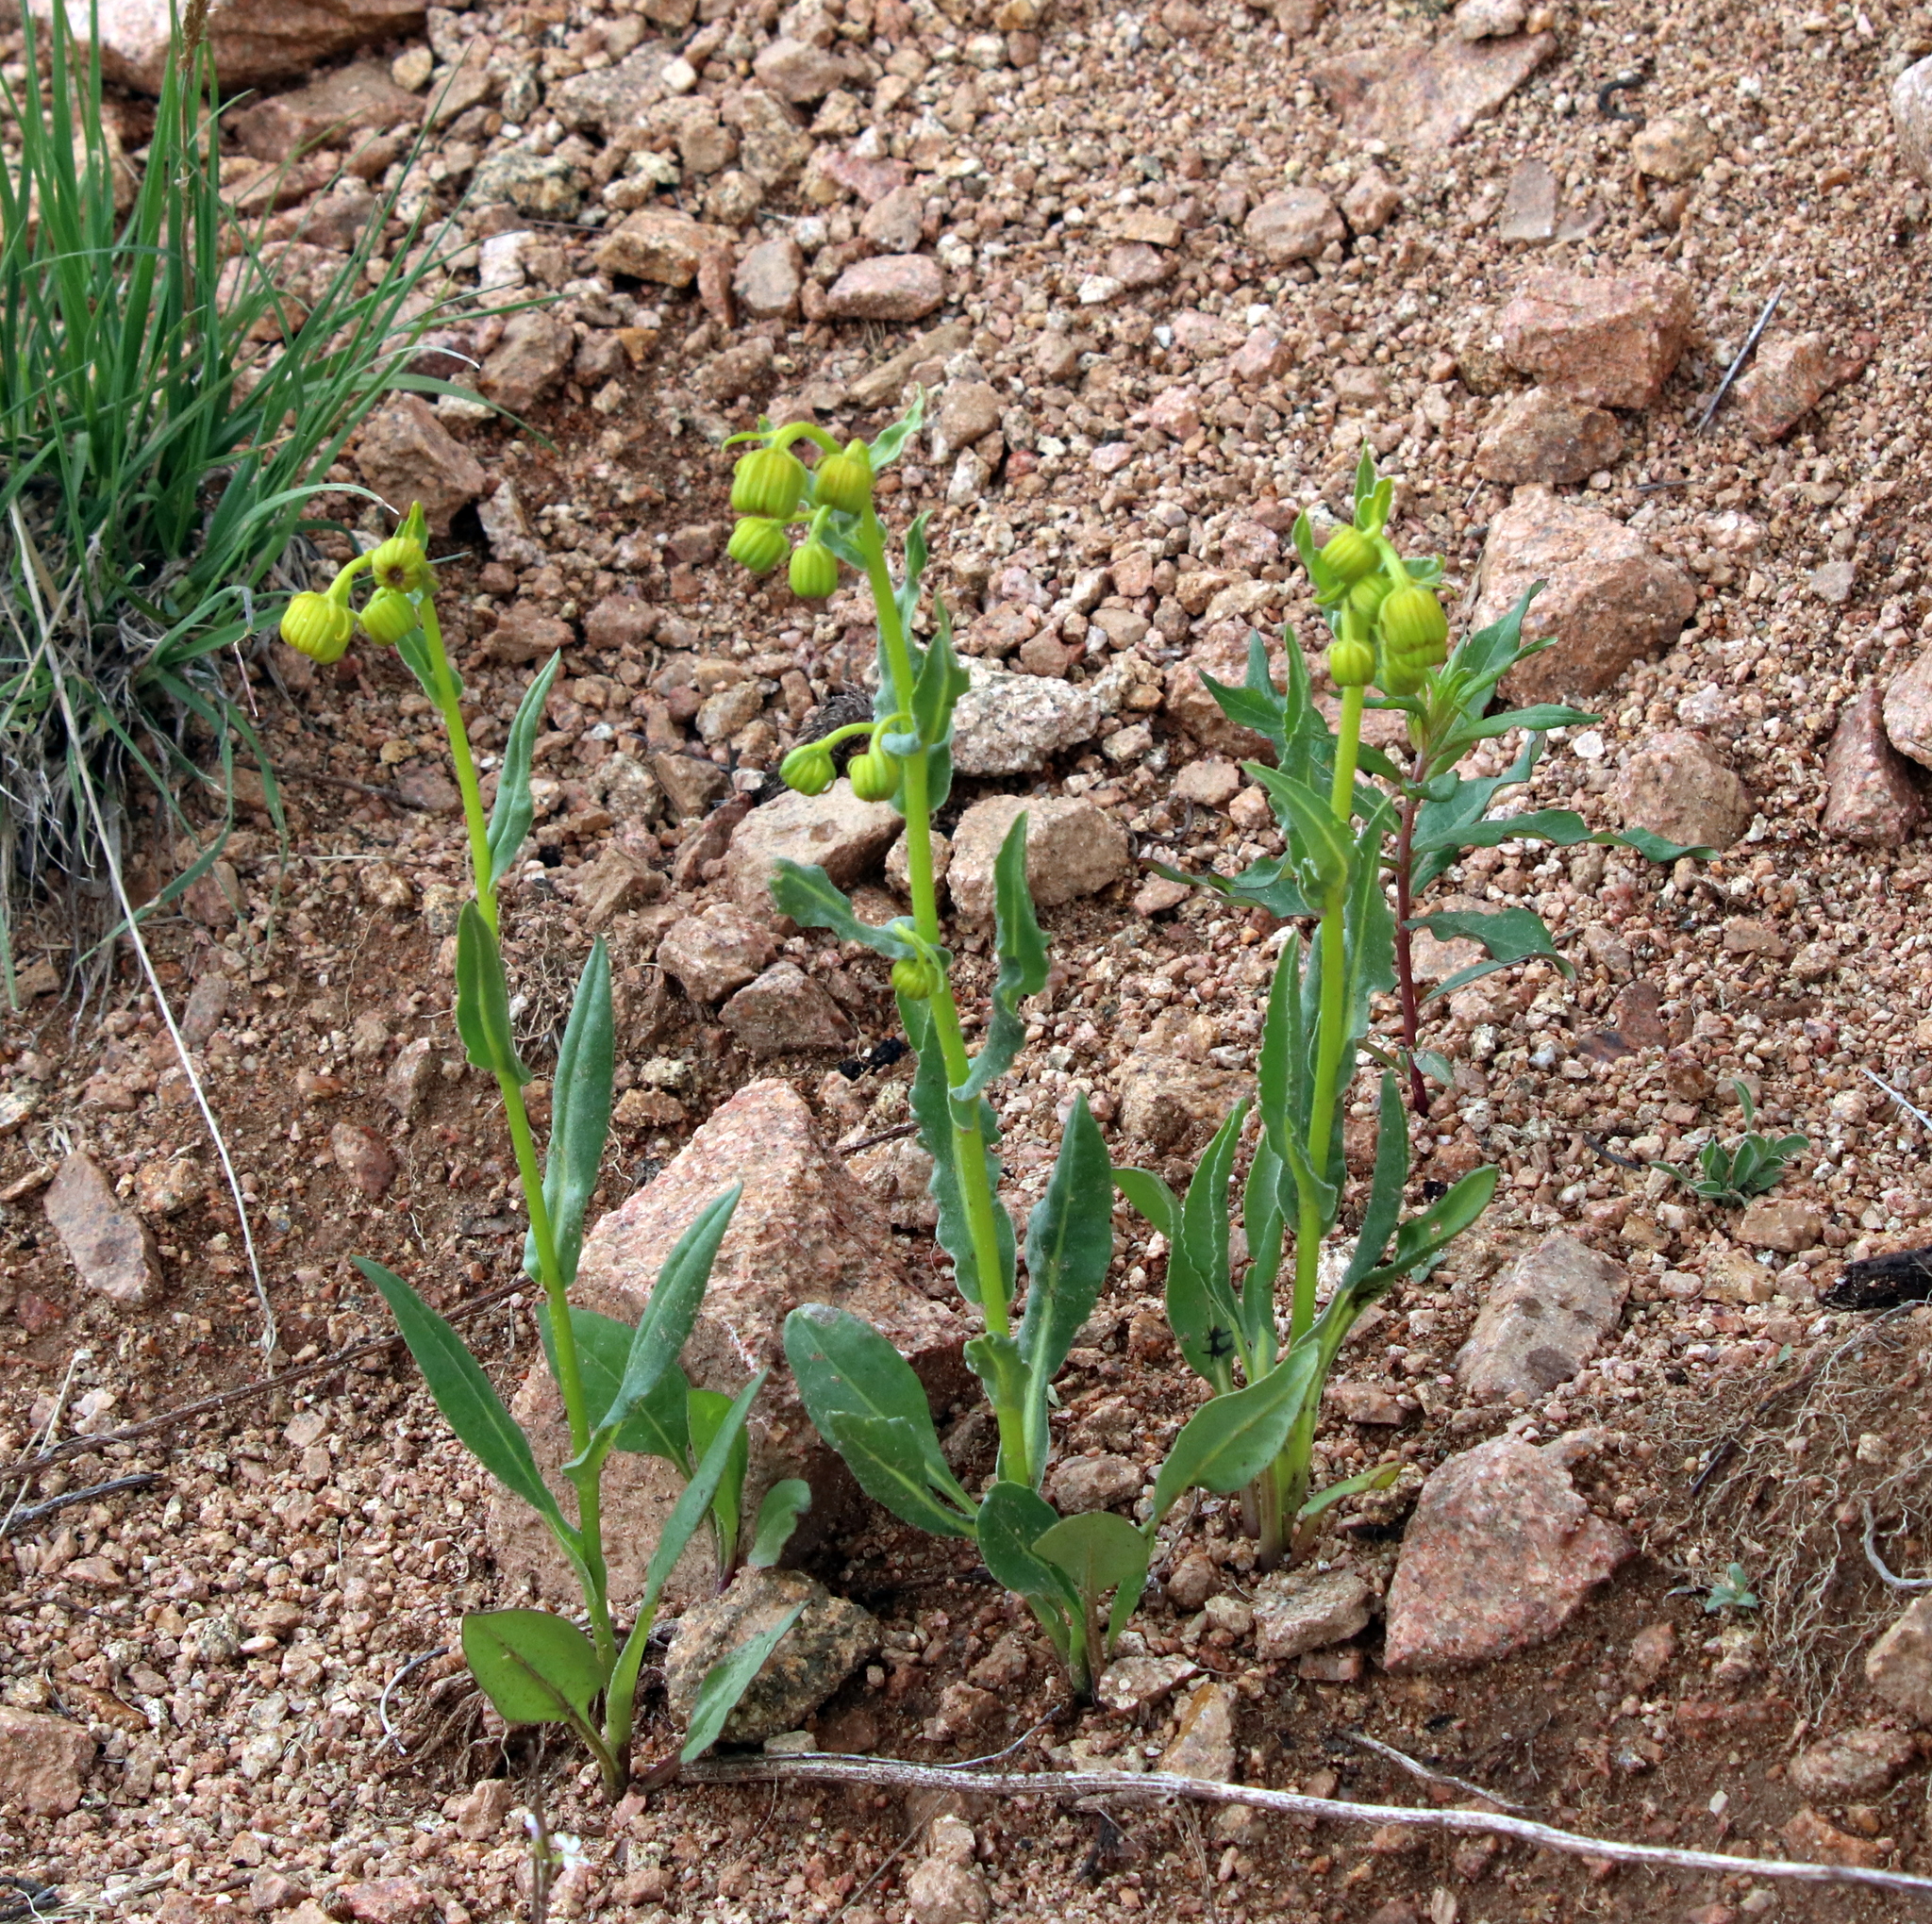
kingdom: Plantae
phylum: Tracheophyta
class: Magnoliopsida
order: Asterales
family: Asteraceae
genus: Senecio
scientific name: Senecio bigelovii
